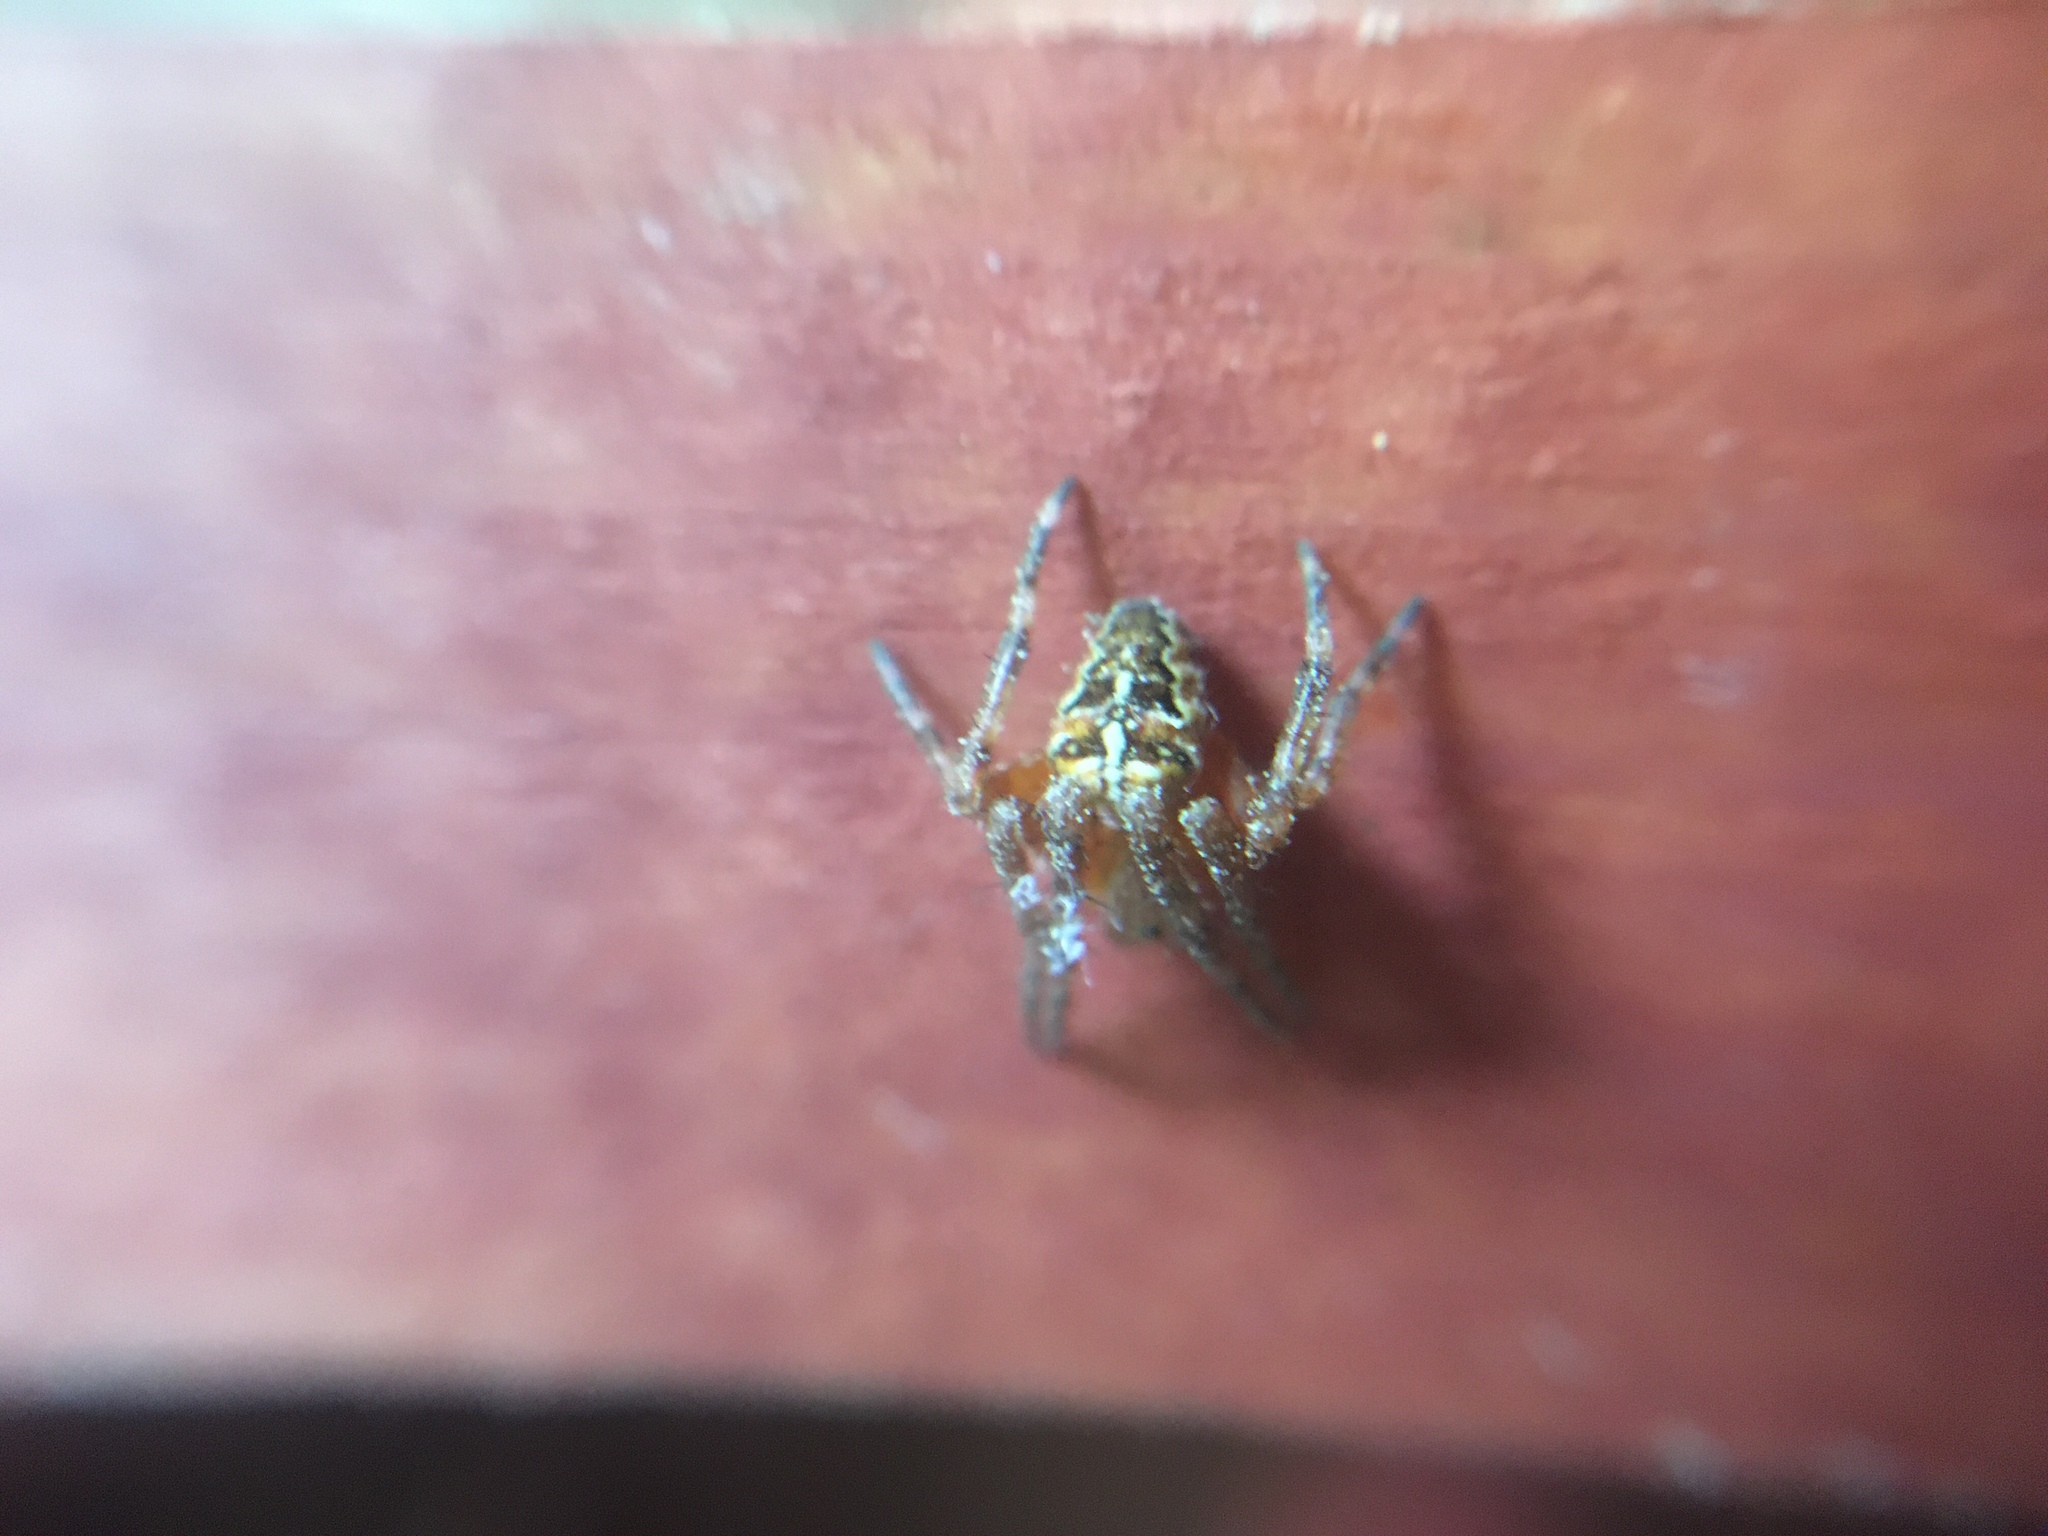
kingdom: Animalia
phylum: Arthropoda
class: Arachnida
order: Araneae
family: Araneidae
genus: Araneus
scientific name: Araneus diadematus
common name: Cross orbweaver
